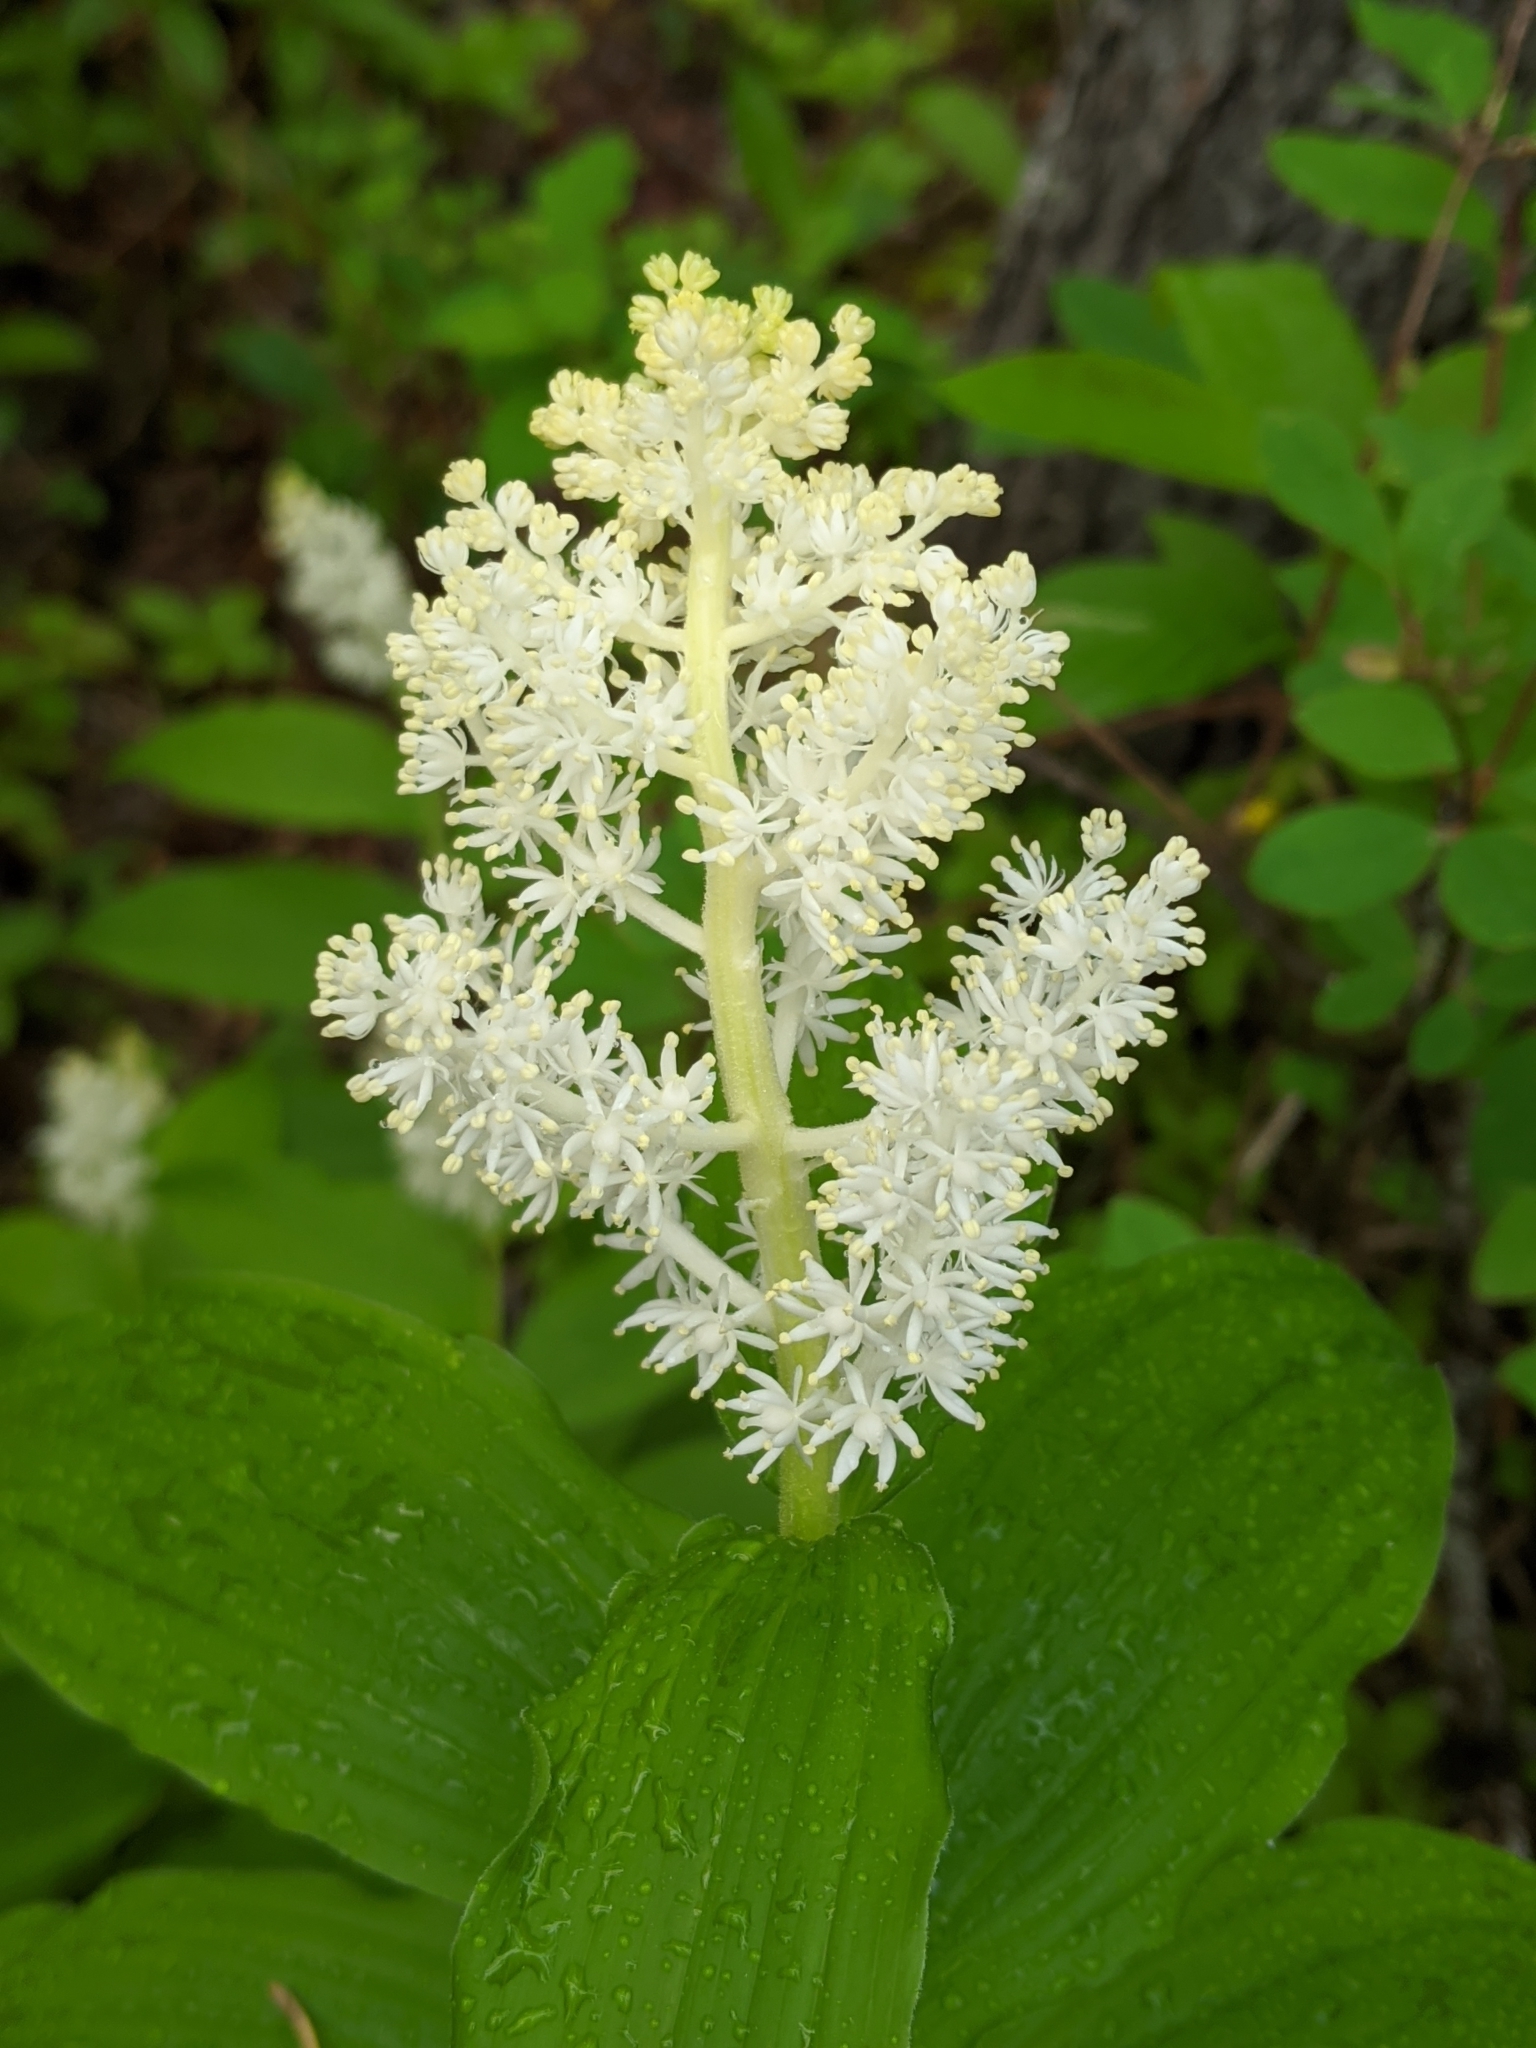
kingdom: Plantae
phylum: Tracheophyta
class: Liliopsida
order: Asparagales
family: Asparagaceae
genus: Maianthemum
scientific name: Maianthemum racemosum
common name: False spikenard
